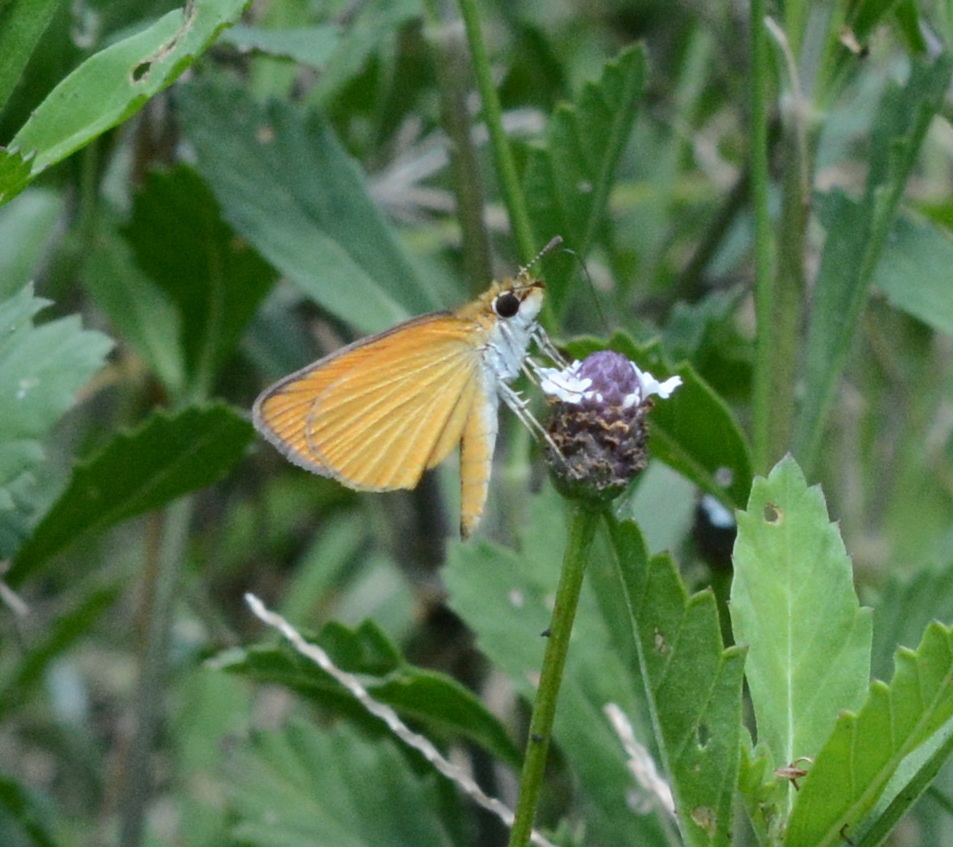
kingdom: Animalia
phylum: Arthropoda
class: Insecta
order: Lepidoptera
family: Hesperiidae
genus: Ancyloxypha
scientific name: Ancyloxypha numitor
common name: Least skipper
